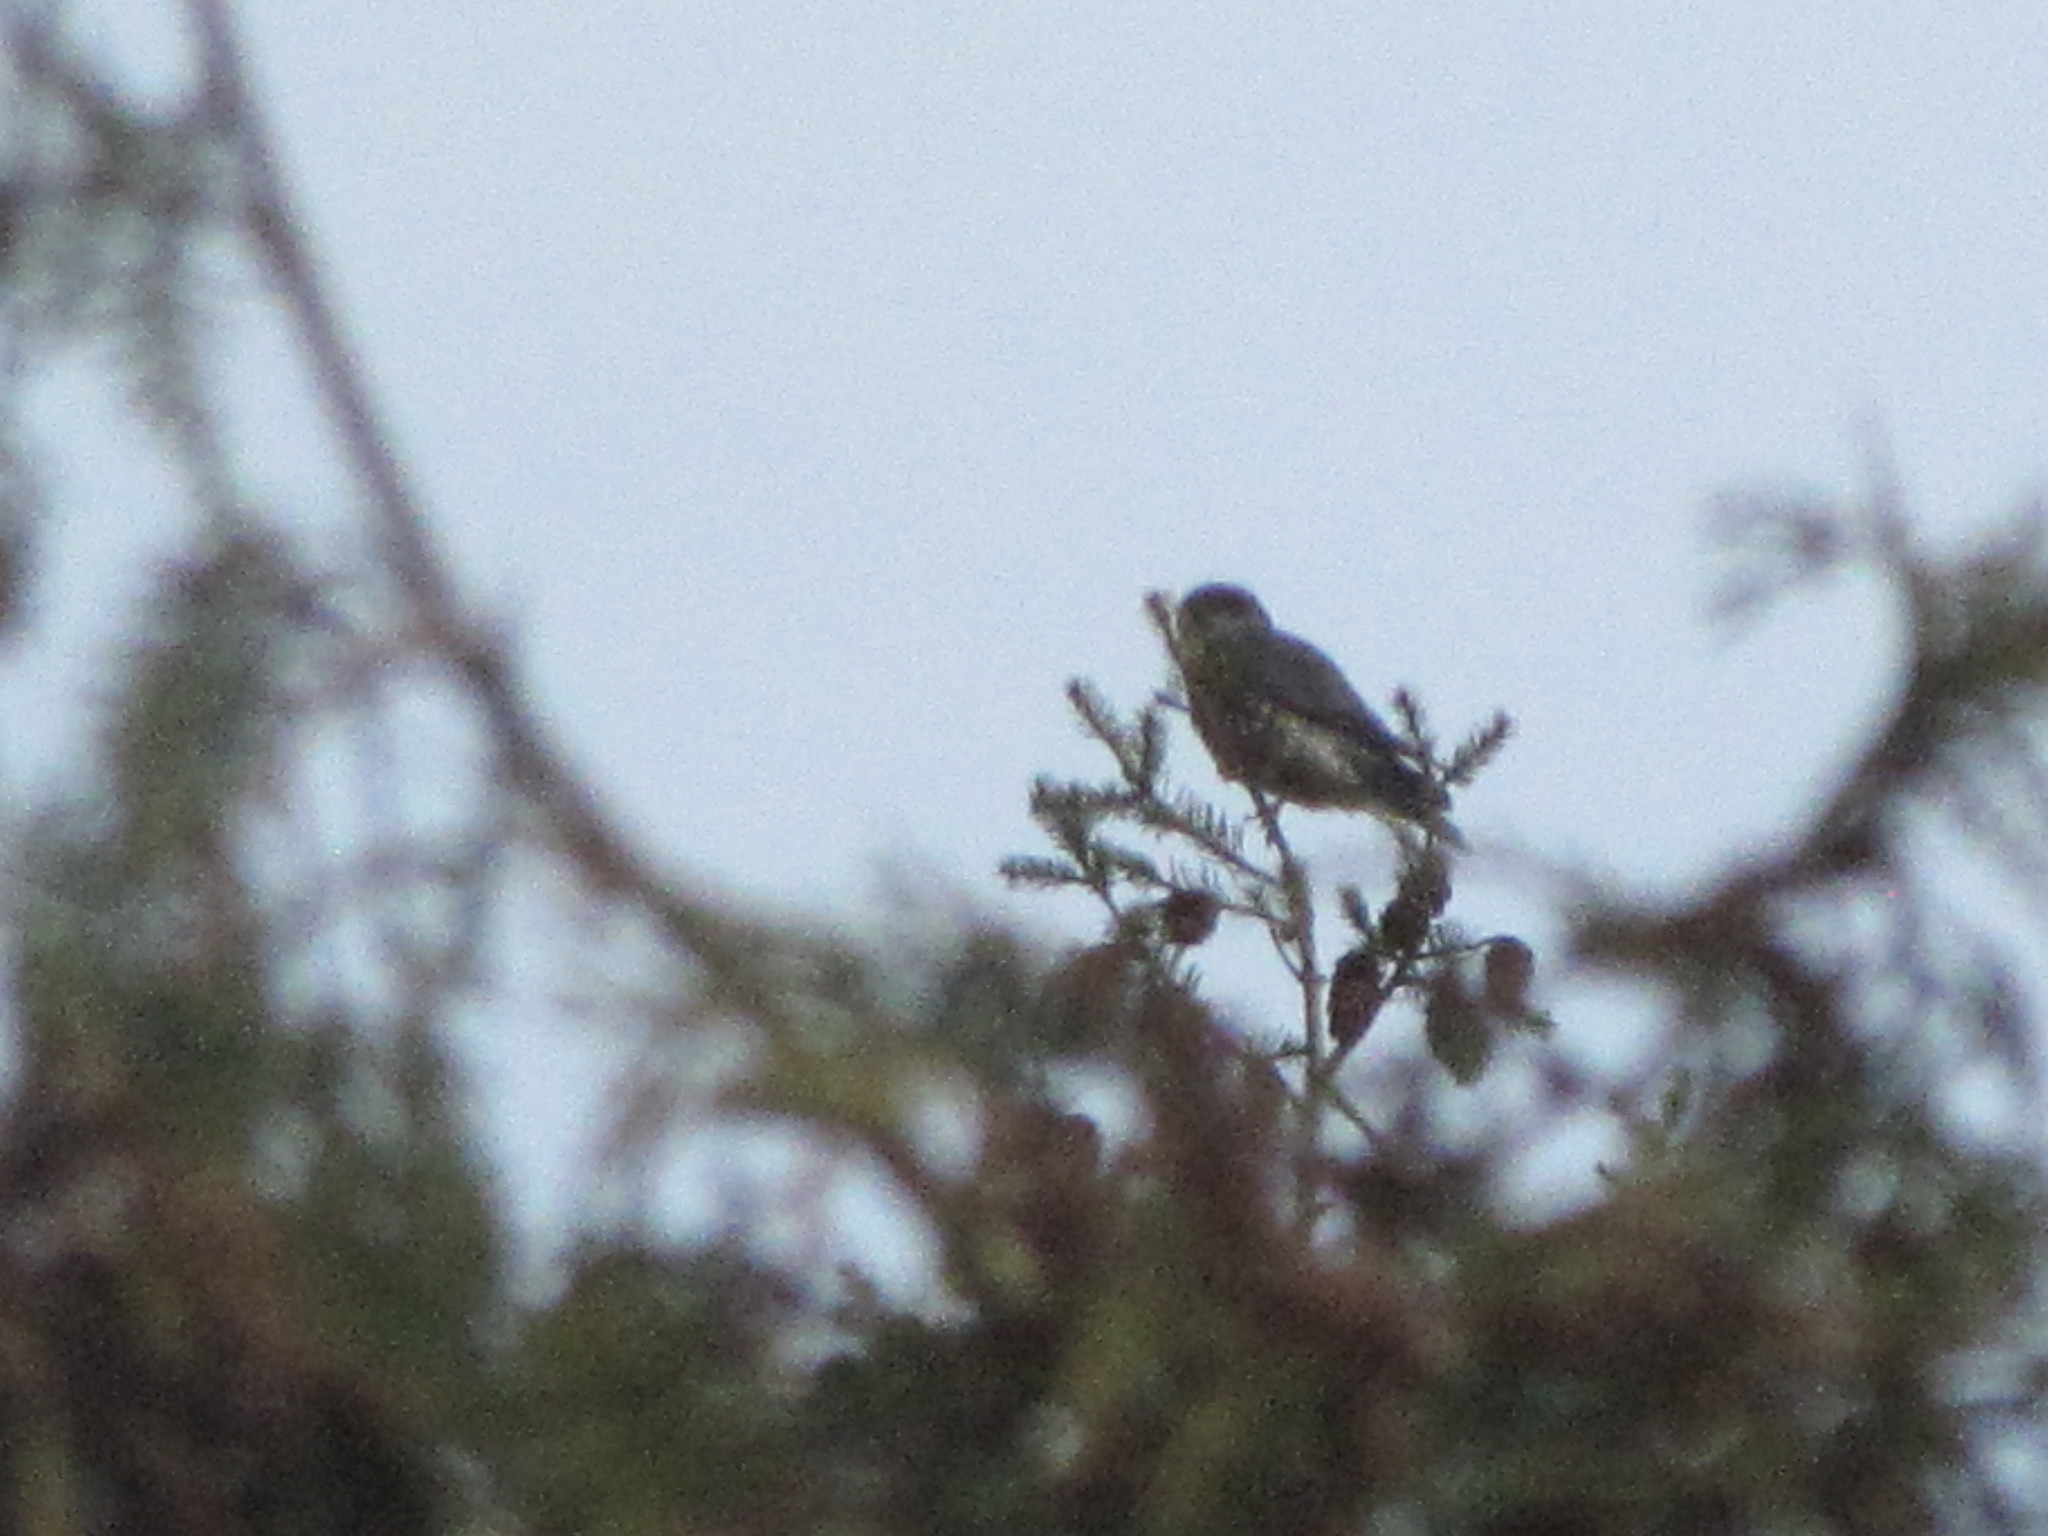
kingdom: Animalia
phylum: Chordata
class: Aves
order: Falconiformes
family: Falconidae
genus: Falco
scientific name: Falco columbarius
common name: Merlin
